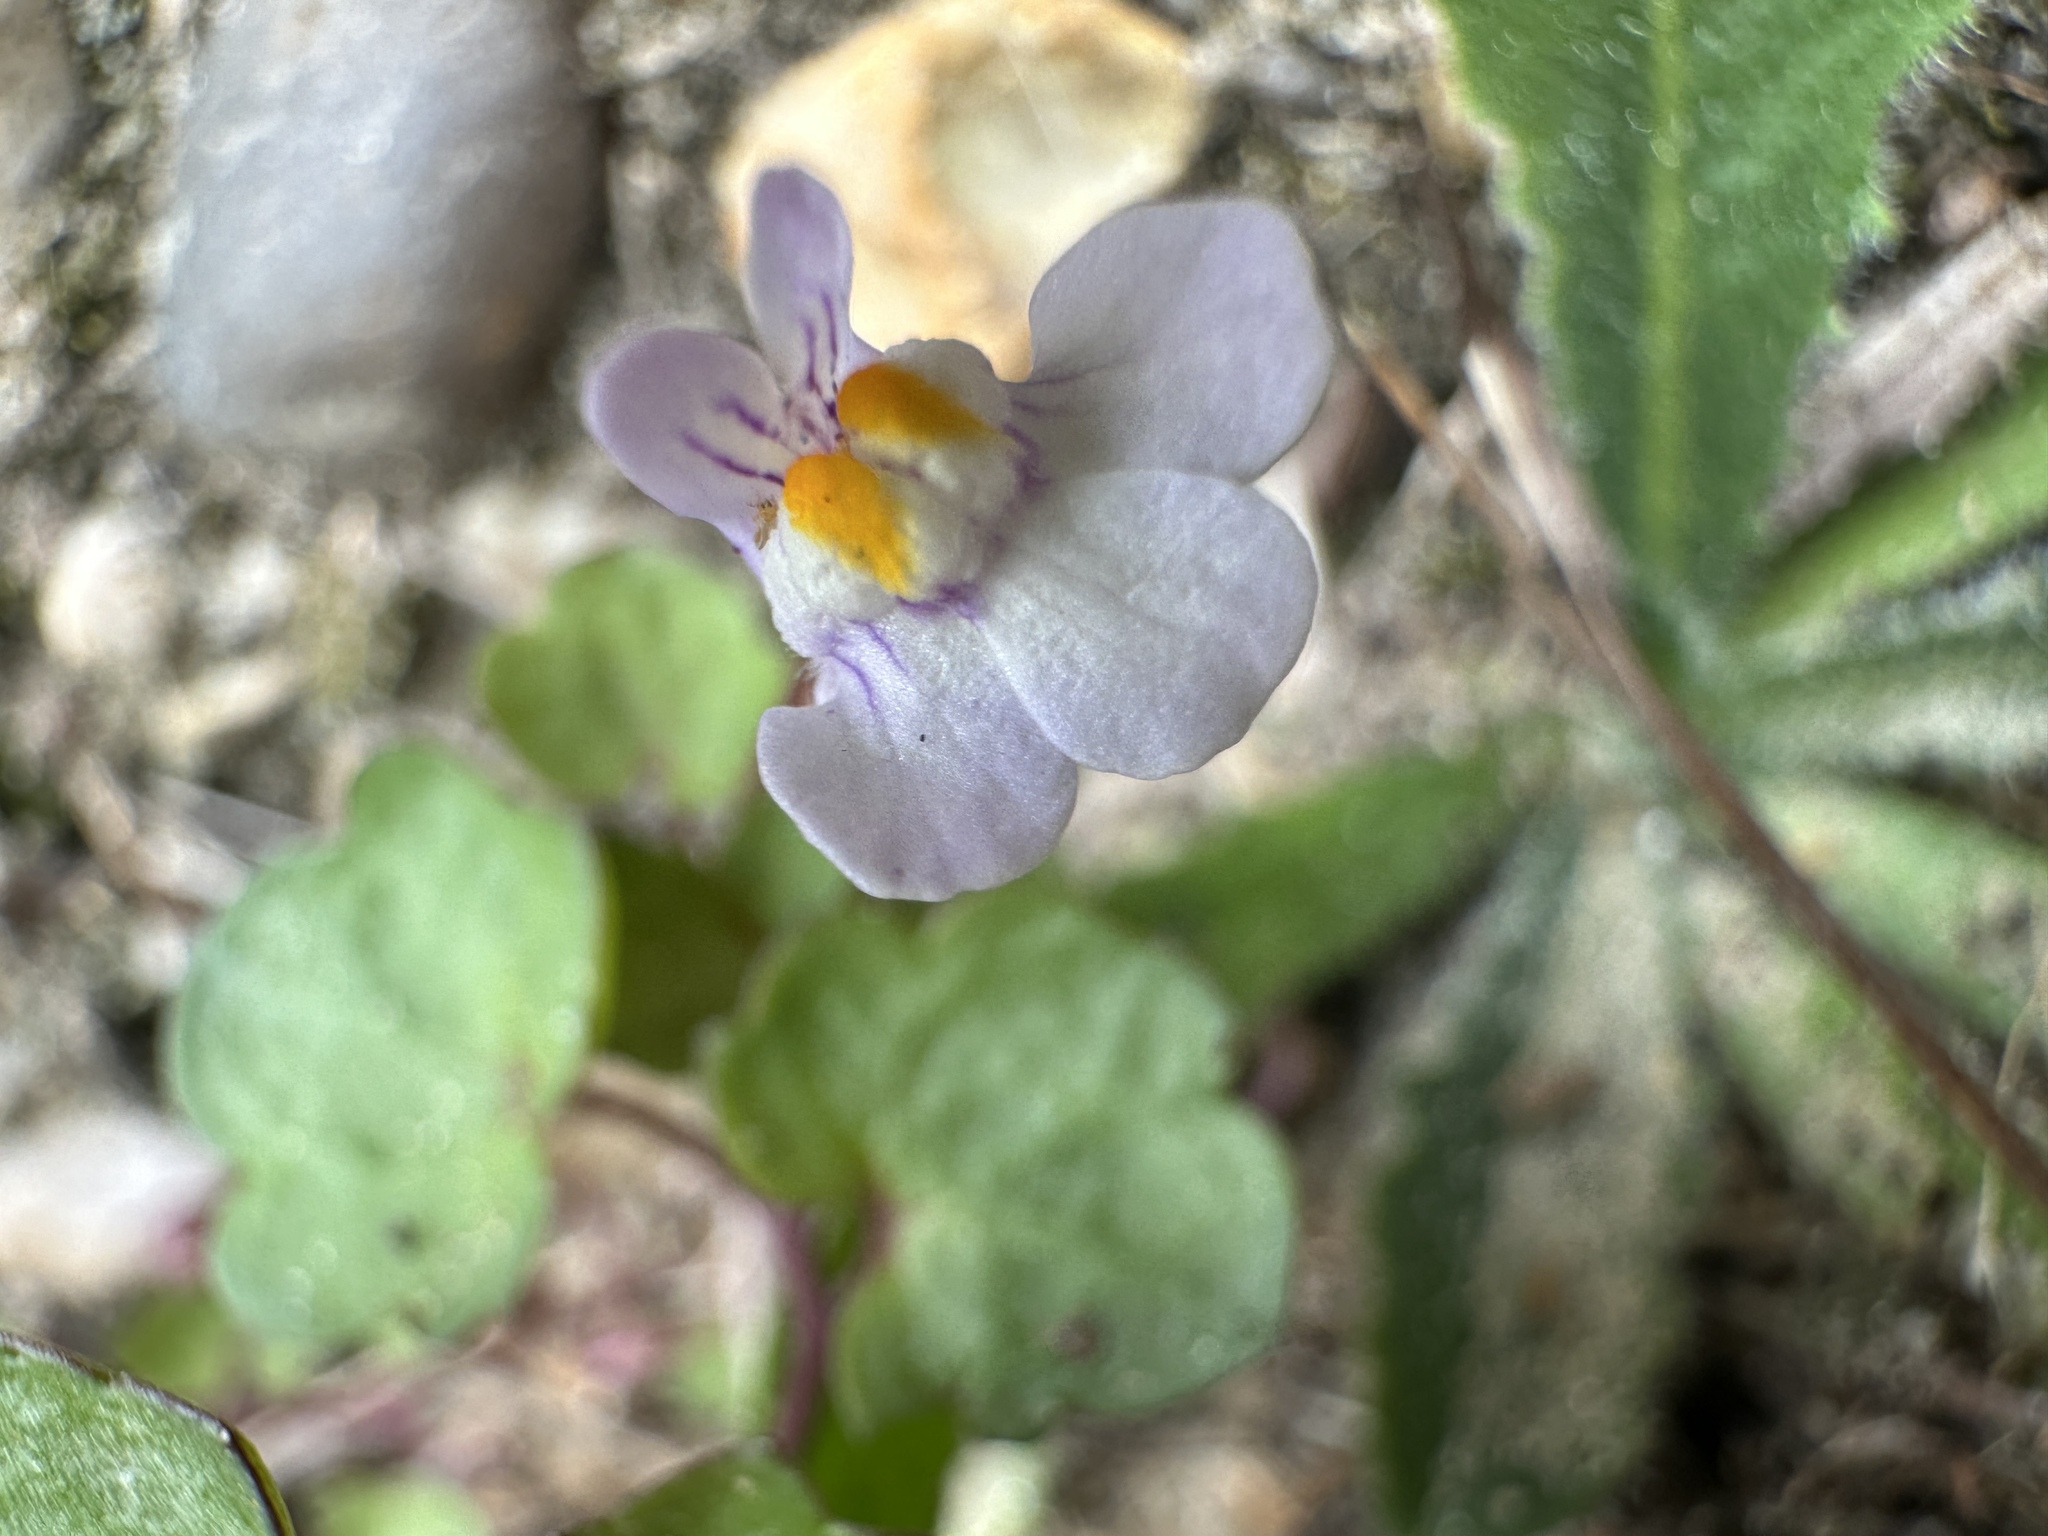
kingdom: Plantae
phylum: Tracheophyta
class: Magnoliopsida
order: Lamiales
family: Plantaginaceae
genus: Cymbalaria
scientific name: Cymbalaria muralis
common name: Ivy-leaved toadflax
